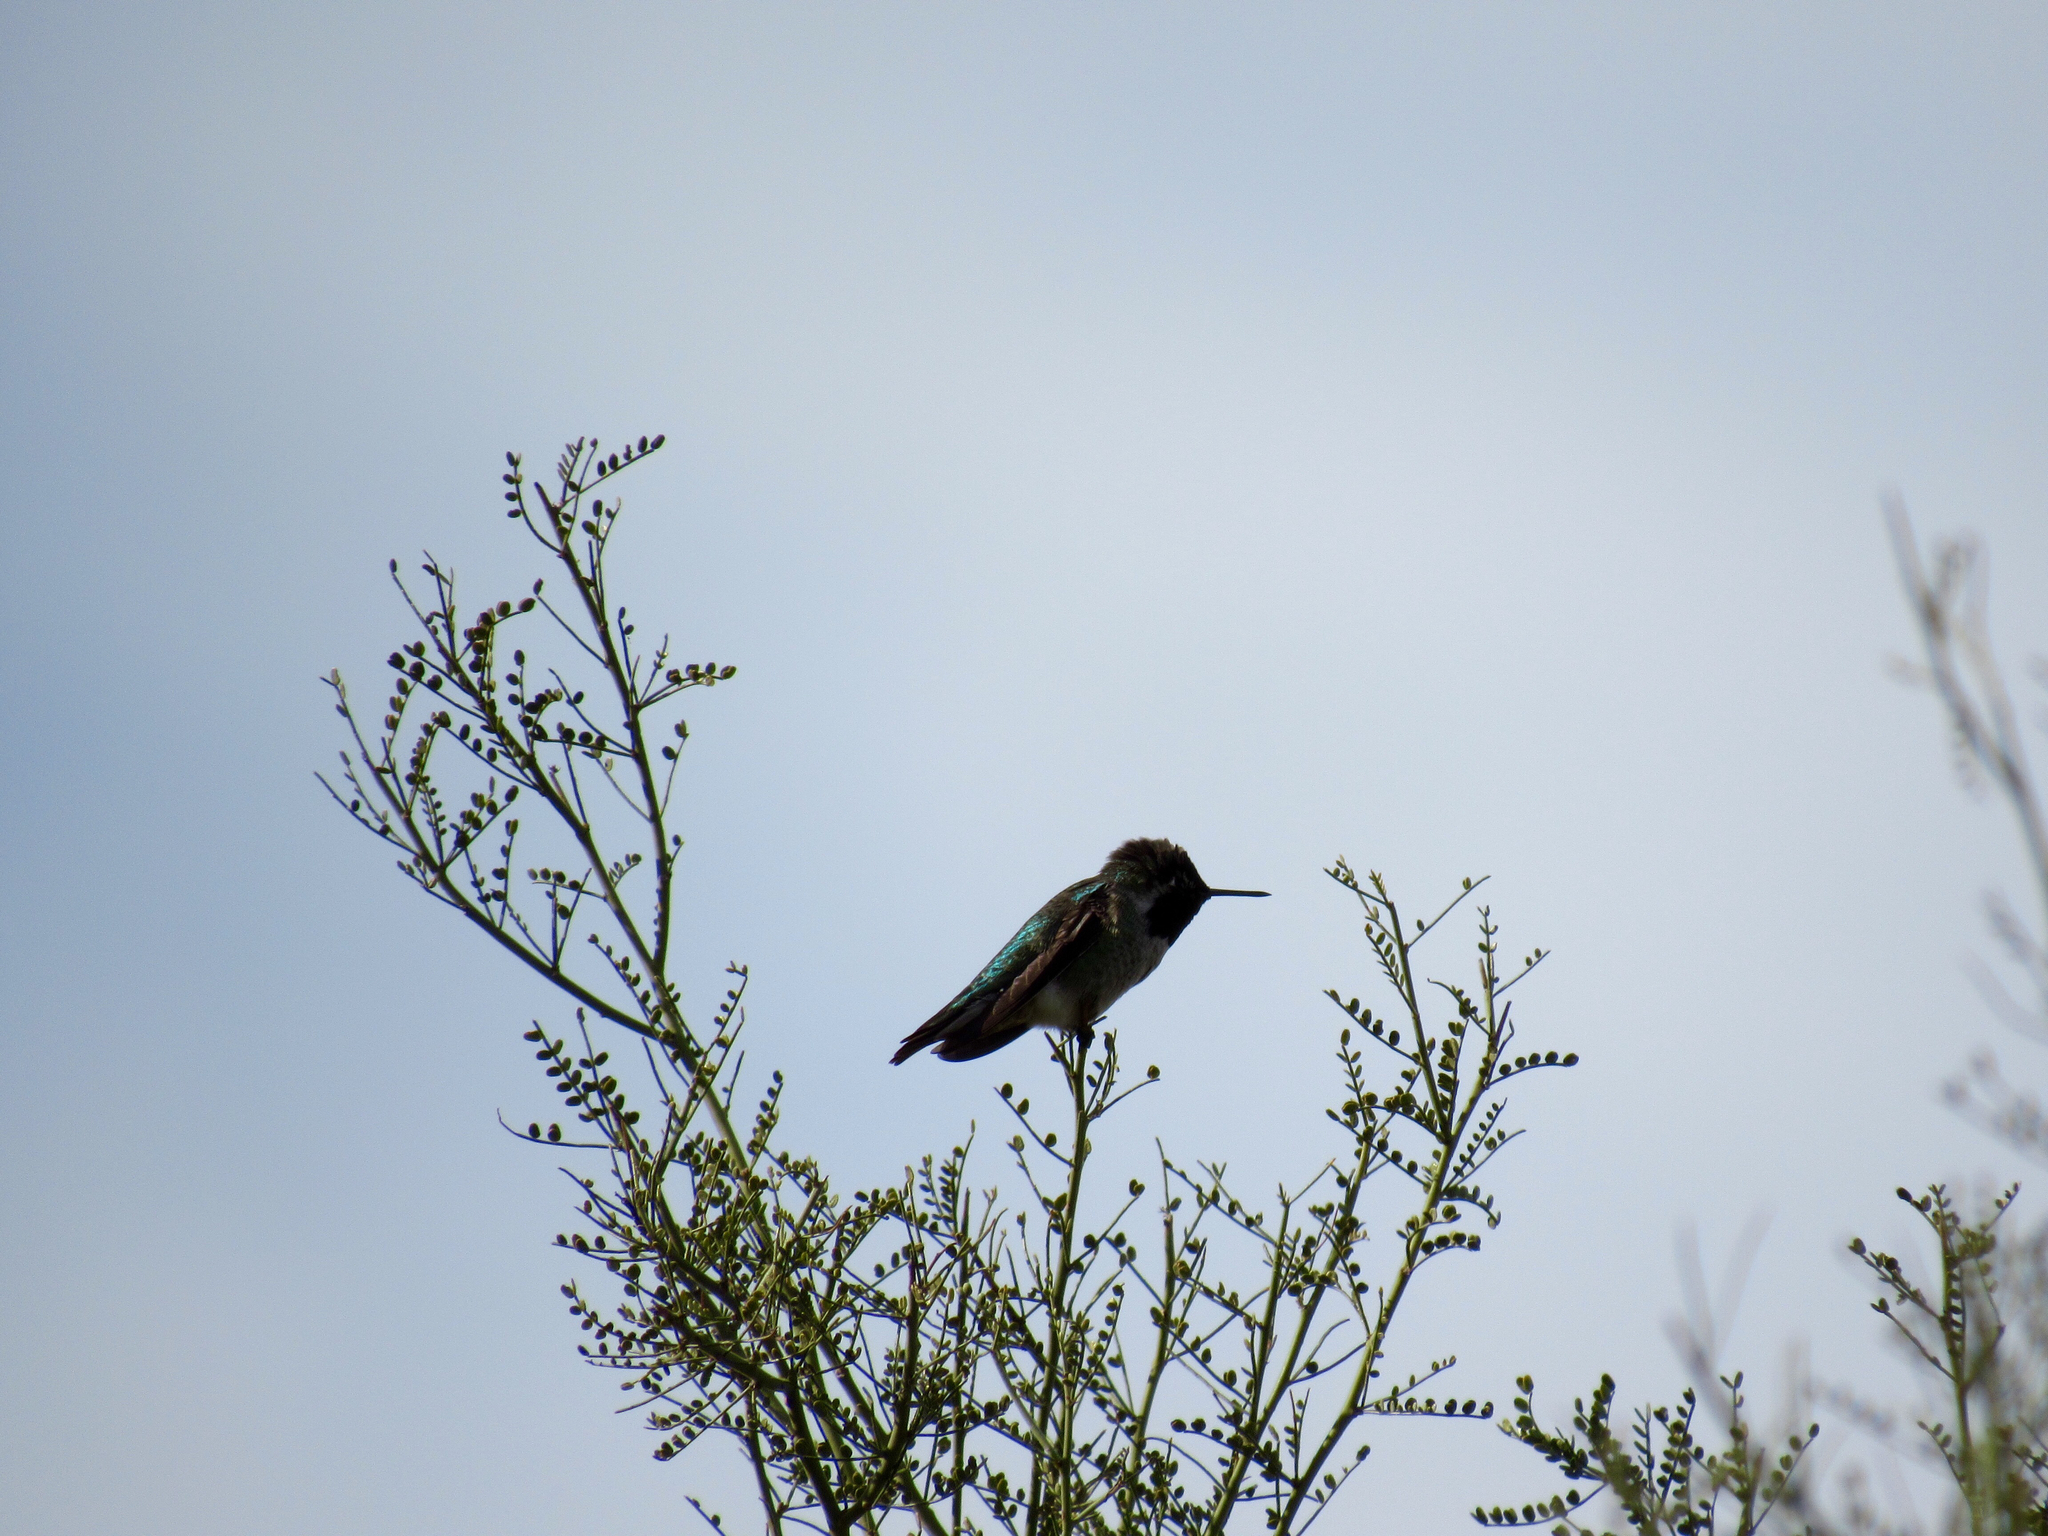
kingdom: Animalia
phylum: Chordata
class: Aves
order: Apodiformes
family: Trochilidae
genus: Calypte
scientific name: Calypte anna
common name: Anna's hummingbird
